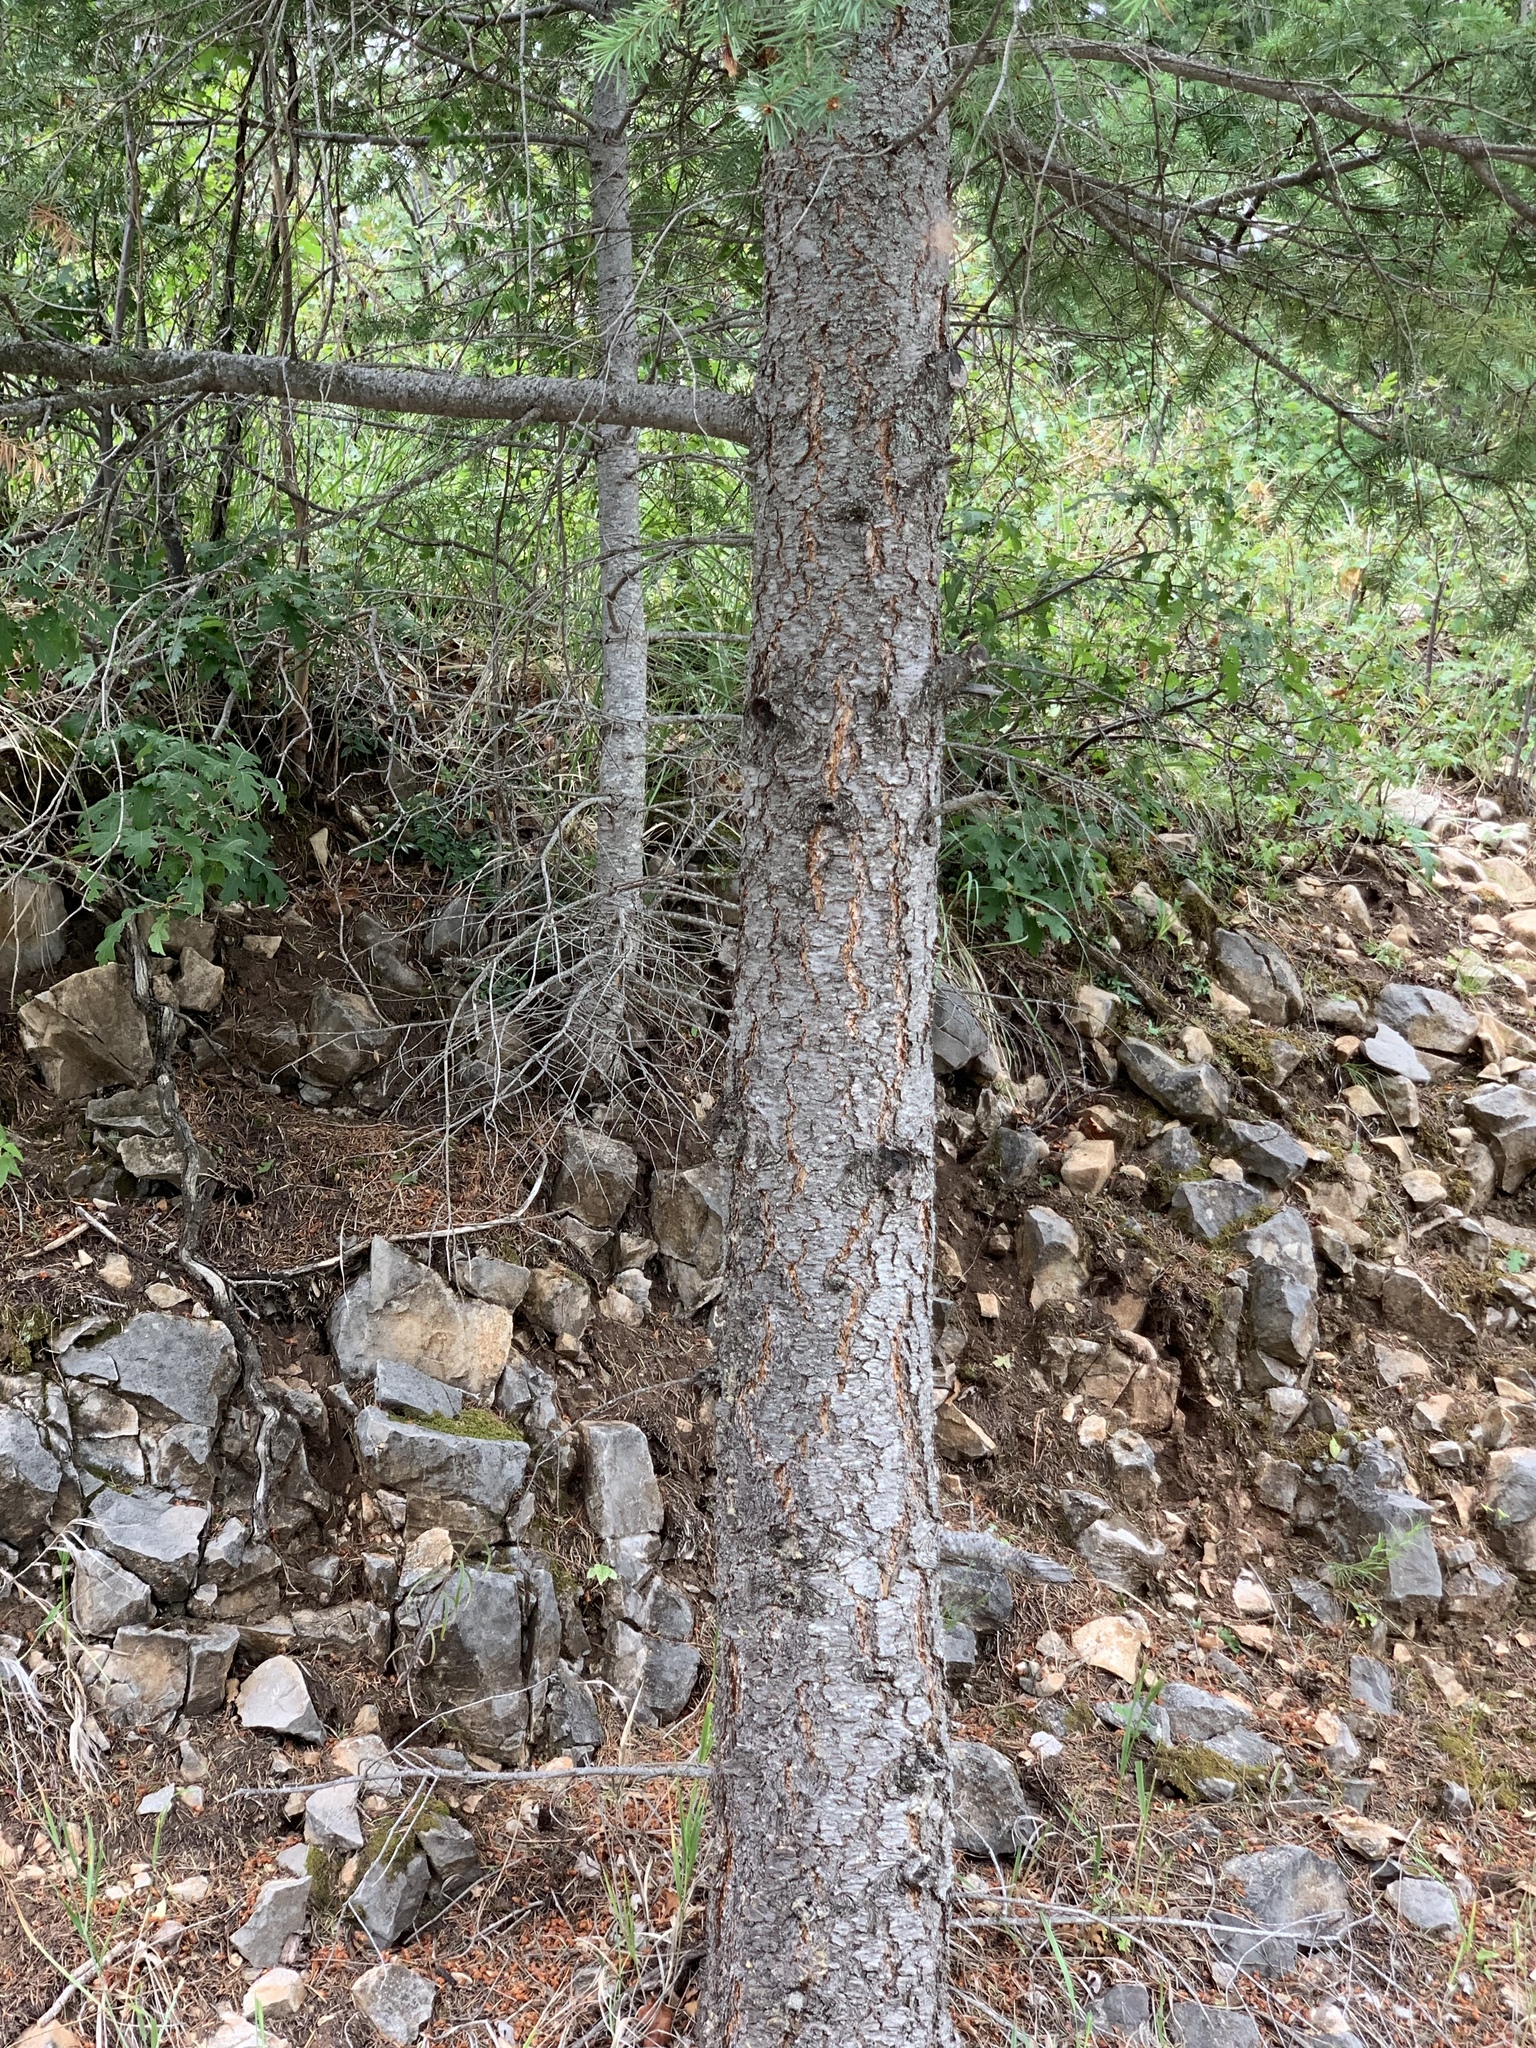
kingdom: Plantae
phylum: Tracheophyta
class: Pinopsida
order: Pinales
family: Pinaceae
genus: Pseudotsuga
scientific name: Pseudotsuga menziesii
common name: Douglas fir
